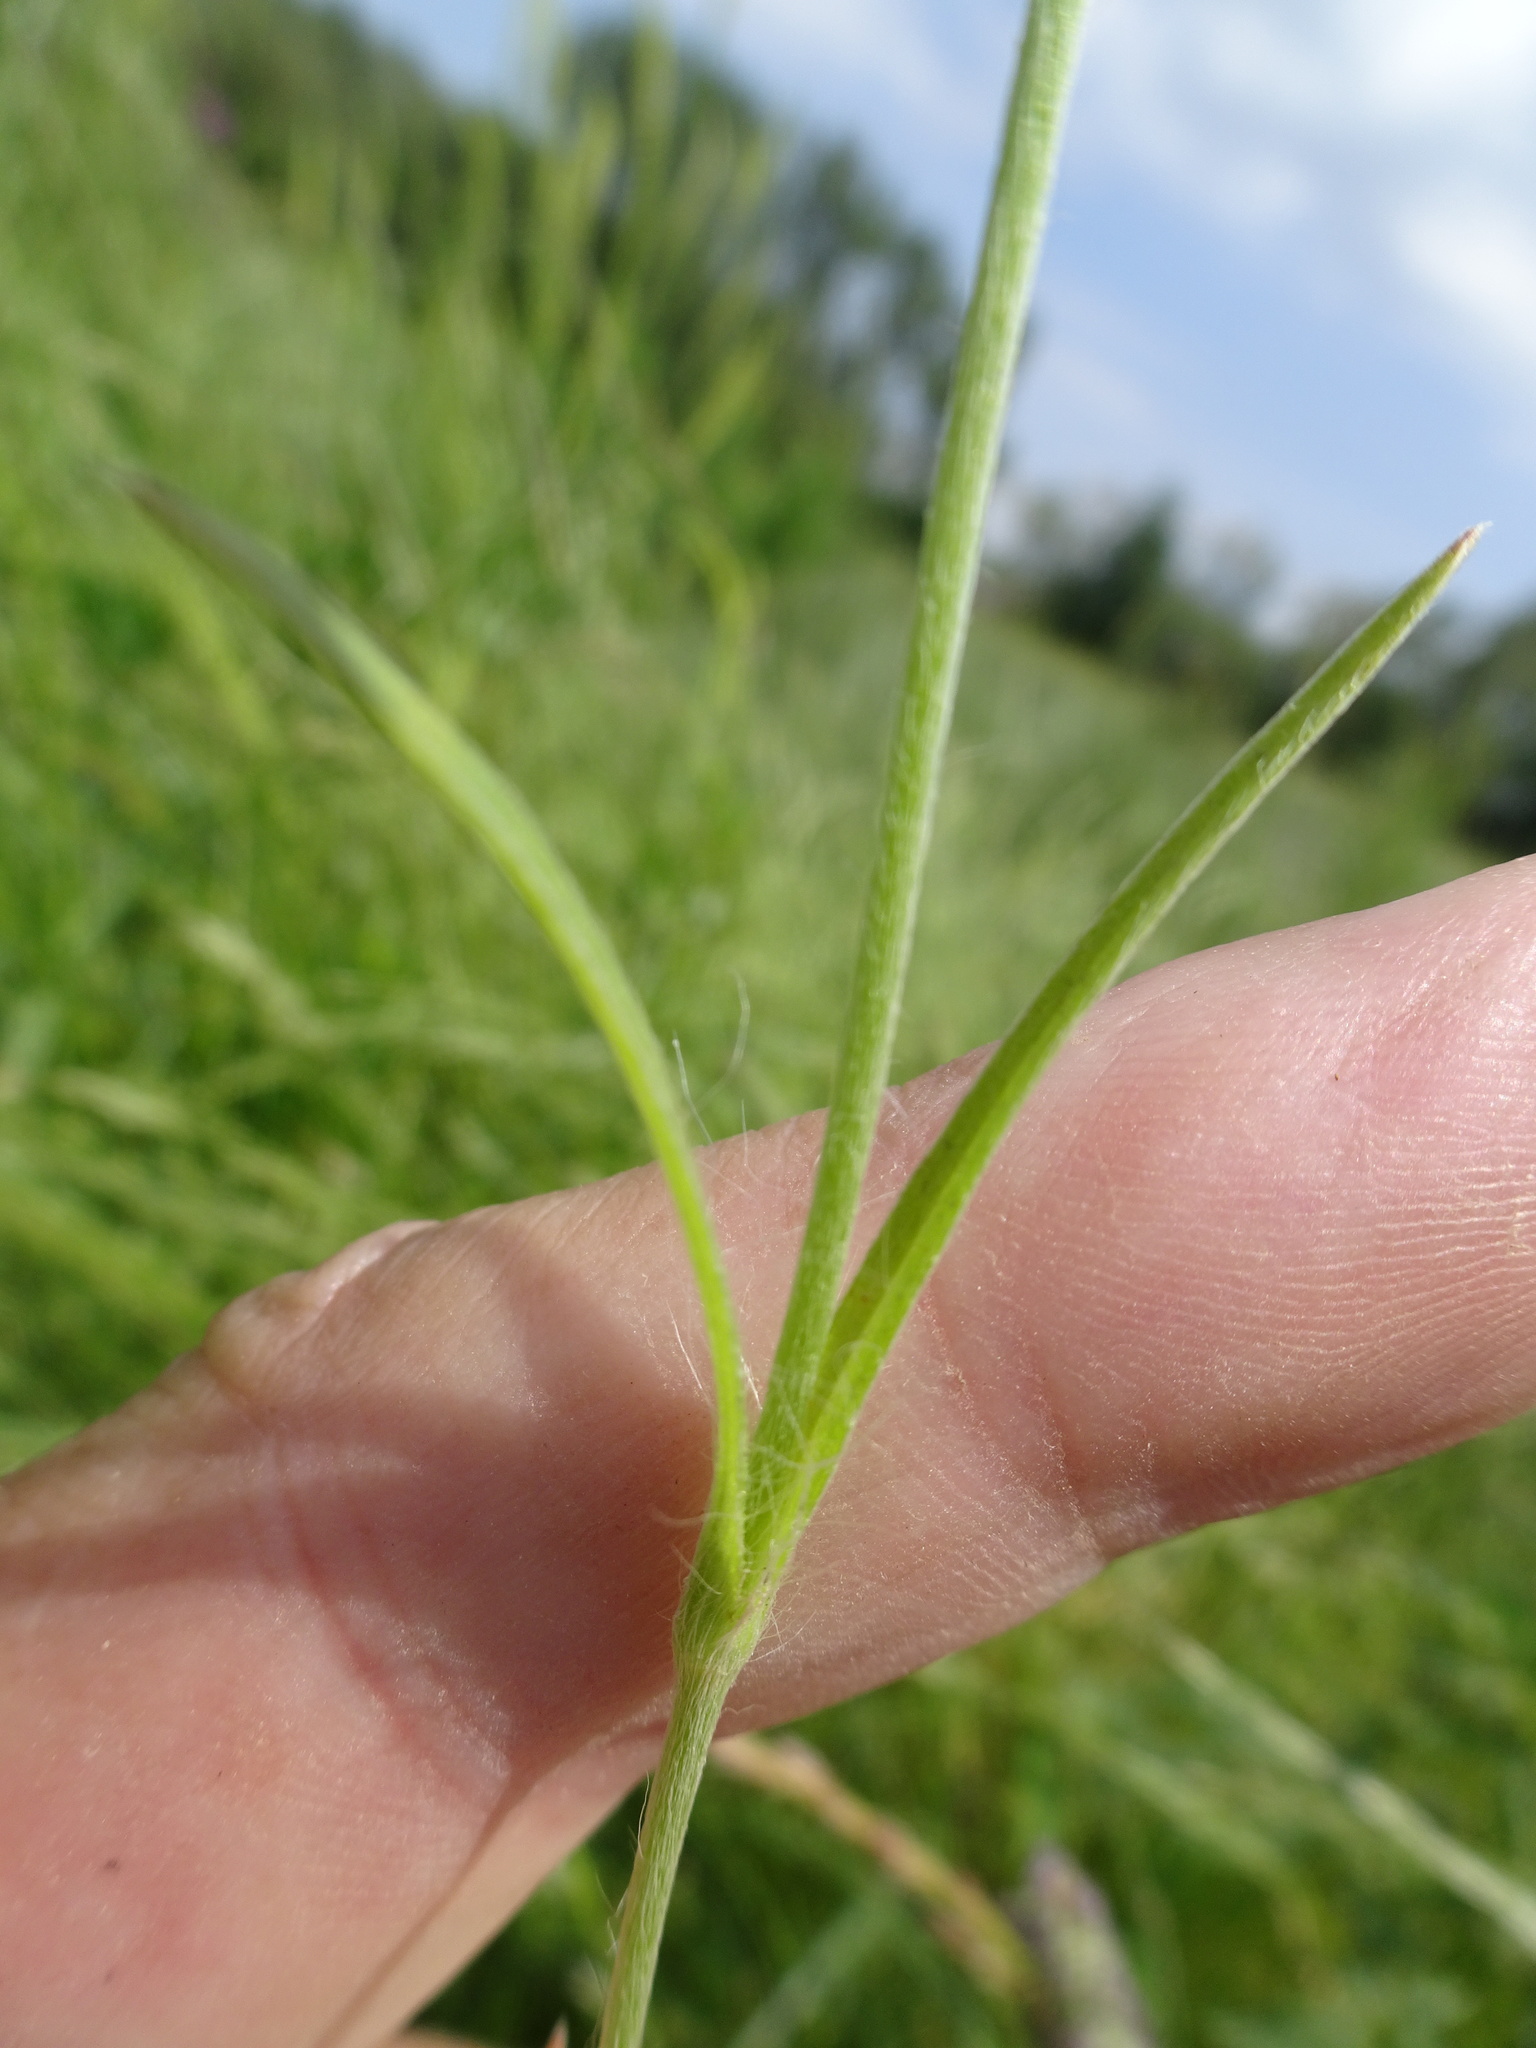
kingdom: Plantae
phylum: Tracheophyta
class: Magnoliopsida
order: Caryophyllales
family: Caryophyllaceae
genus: Agrostemma
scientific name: Agrostemma githago
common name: Common corncockle
